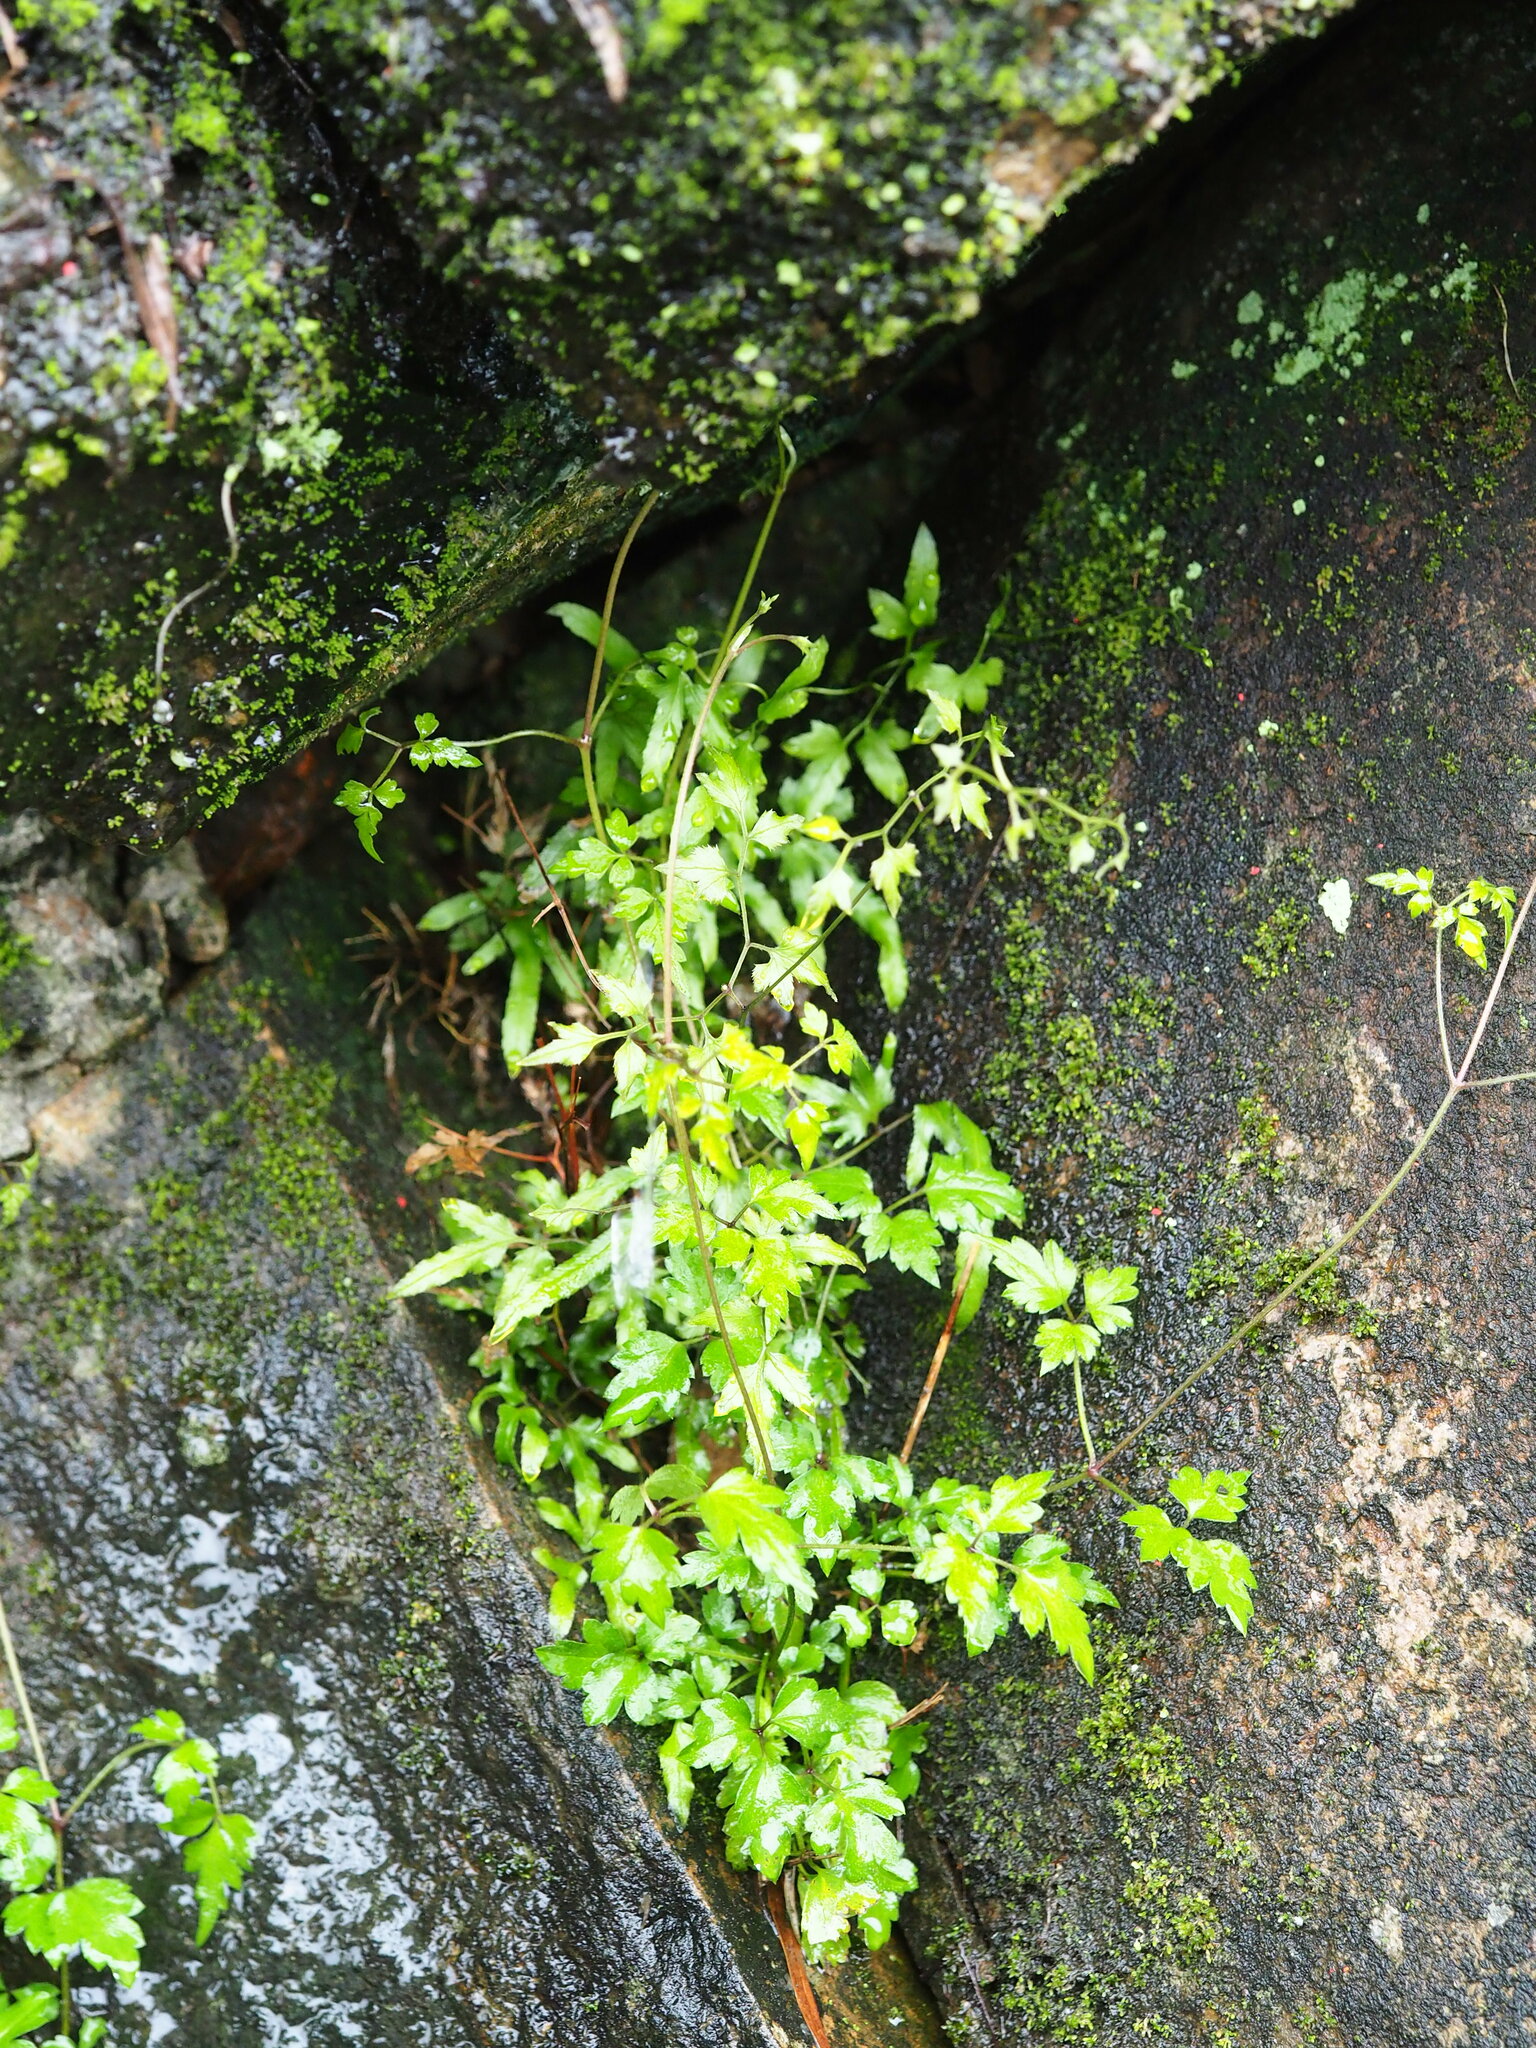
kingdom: Plantae
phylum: Tracheophyta
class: Magnoliopsida
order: Ranunculales
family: Ranunculaceae
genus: Clematis
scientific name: Clematis grata
